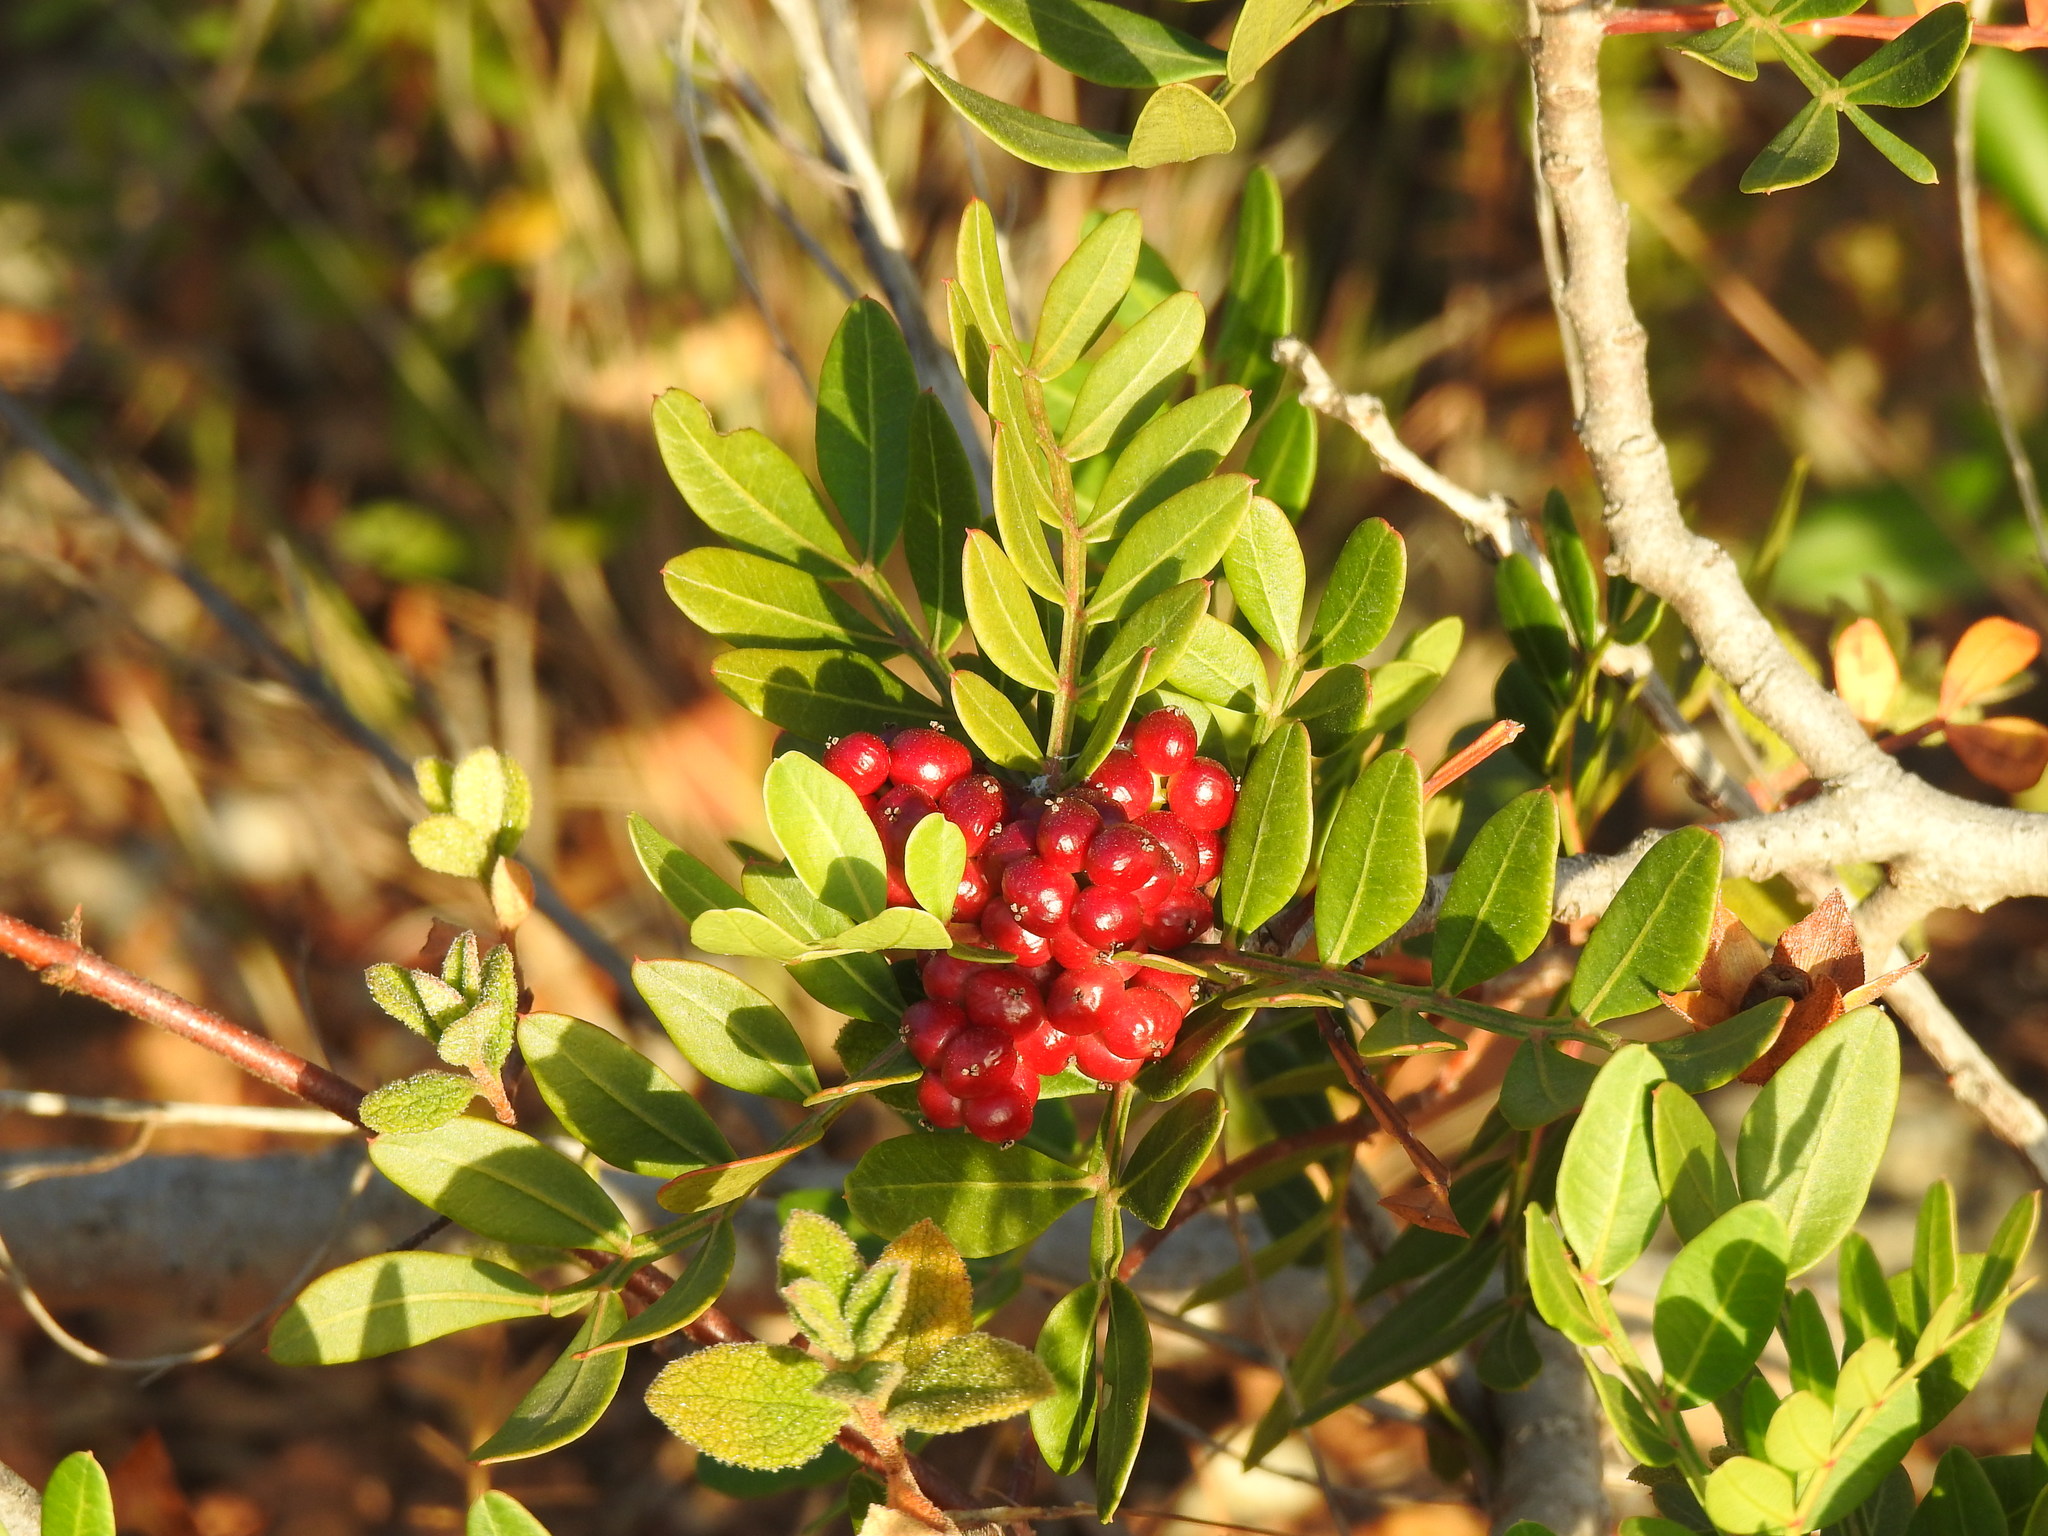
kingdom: Plantae
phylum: Tracheophyta
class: Magnoliopsida
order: Sapindales
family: Anacardiaceae
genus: Pistacia
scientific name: Pistacia lentiscus
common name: Lentisk
